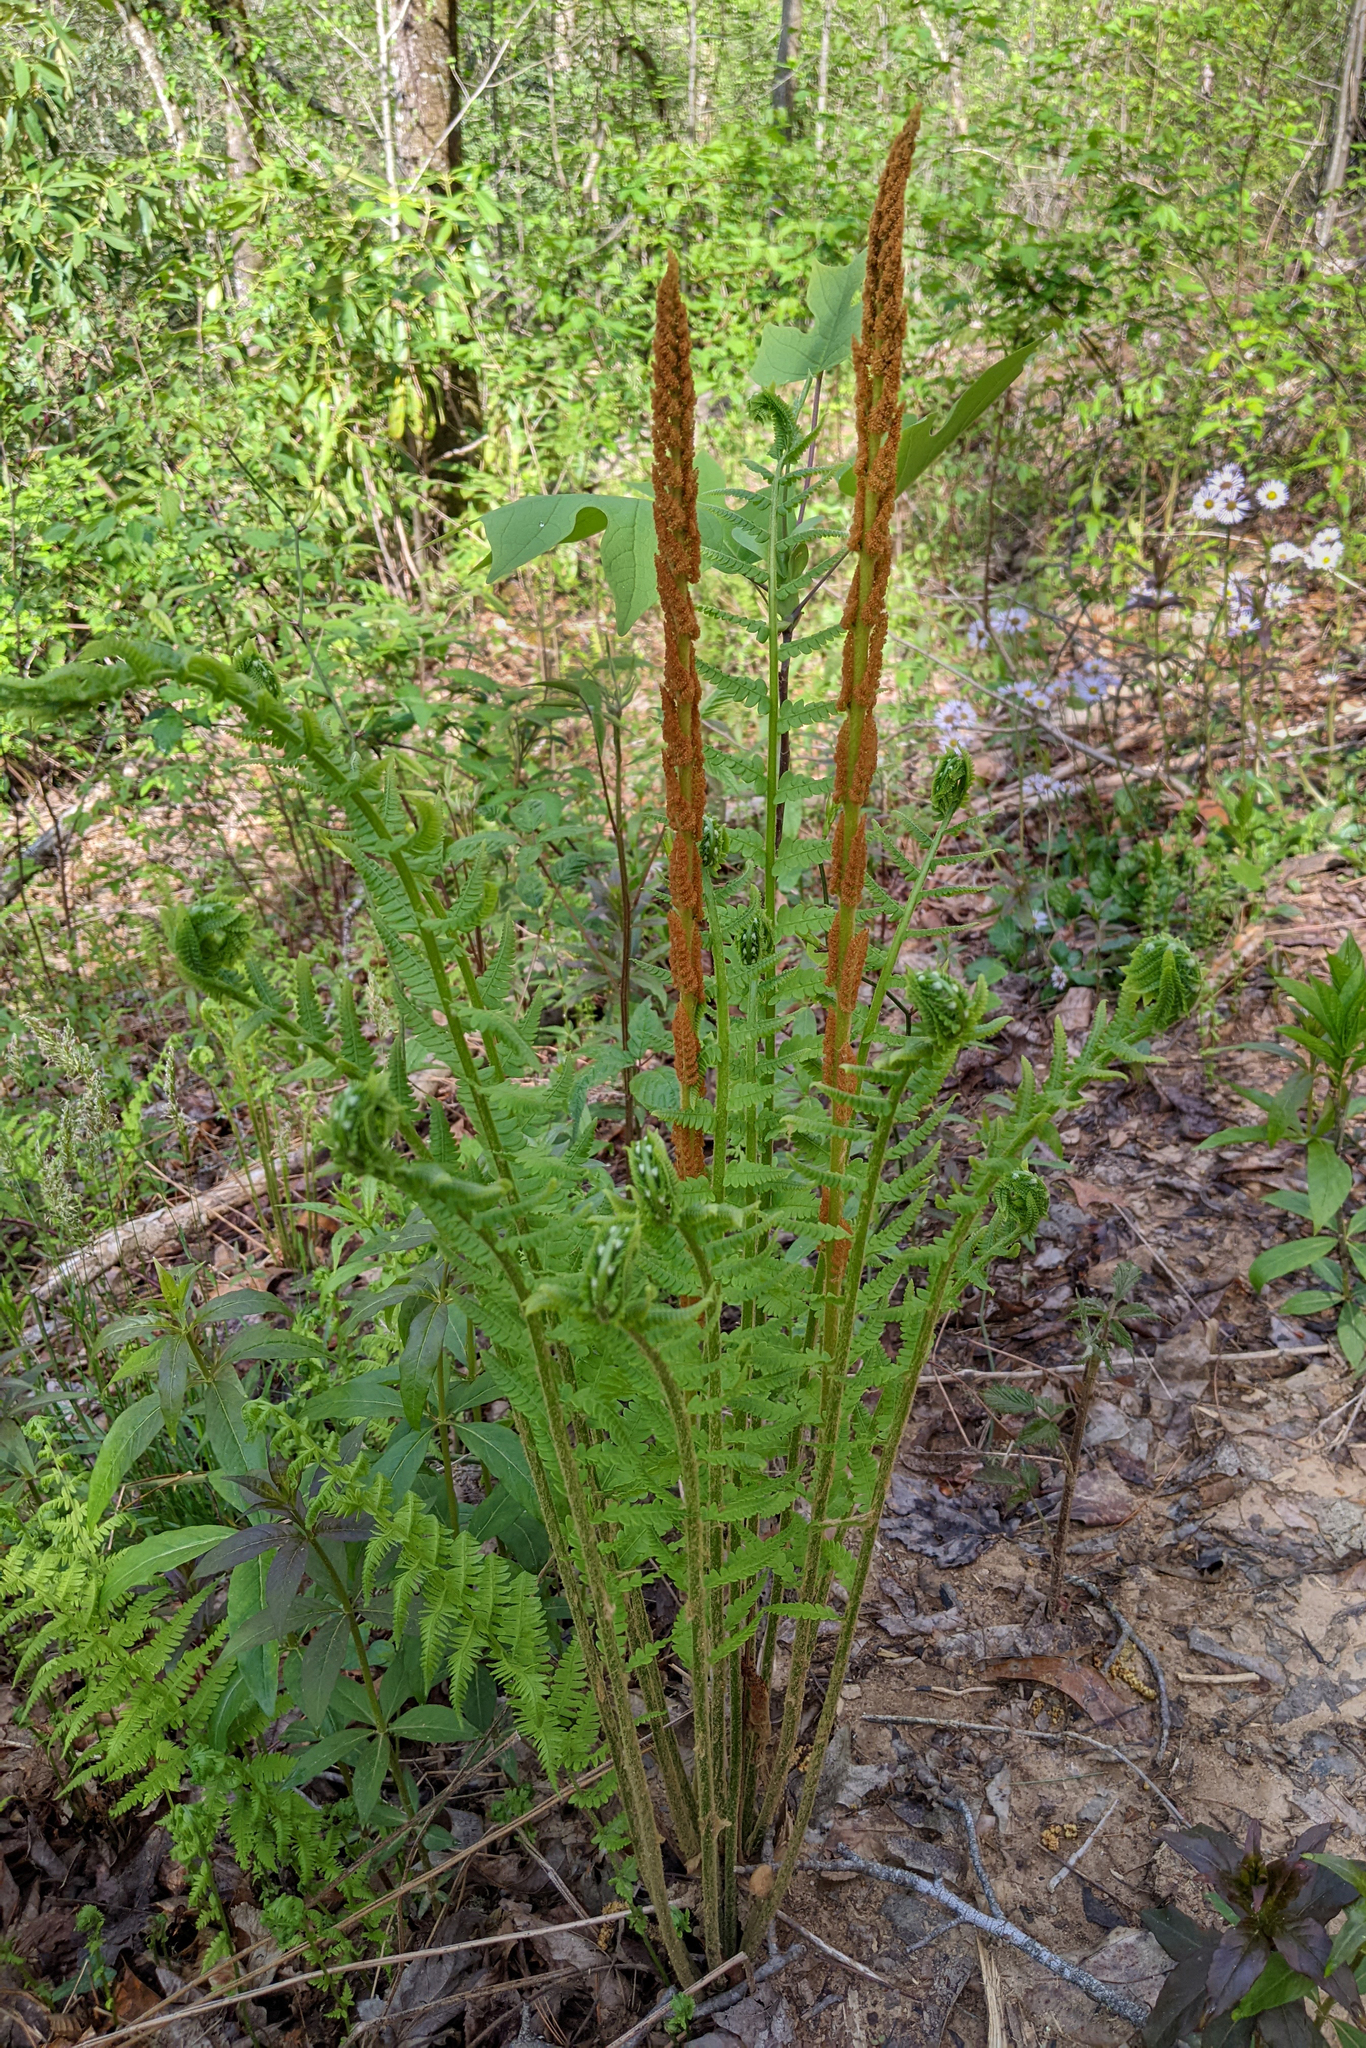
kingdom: Plantae
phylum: Tracheophyta
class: Polypodiopsida
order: Osmundales
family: Osmundaceae
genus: Osmundastrum
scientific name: Osmundastrum cinnamomeum
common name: Cinnamon fern
